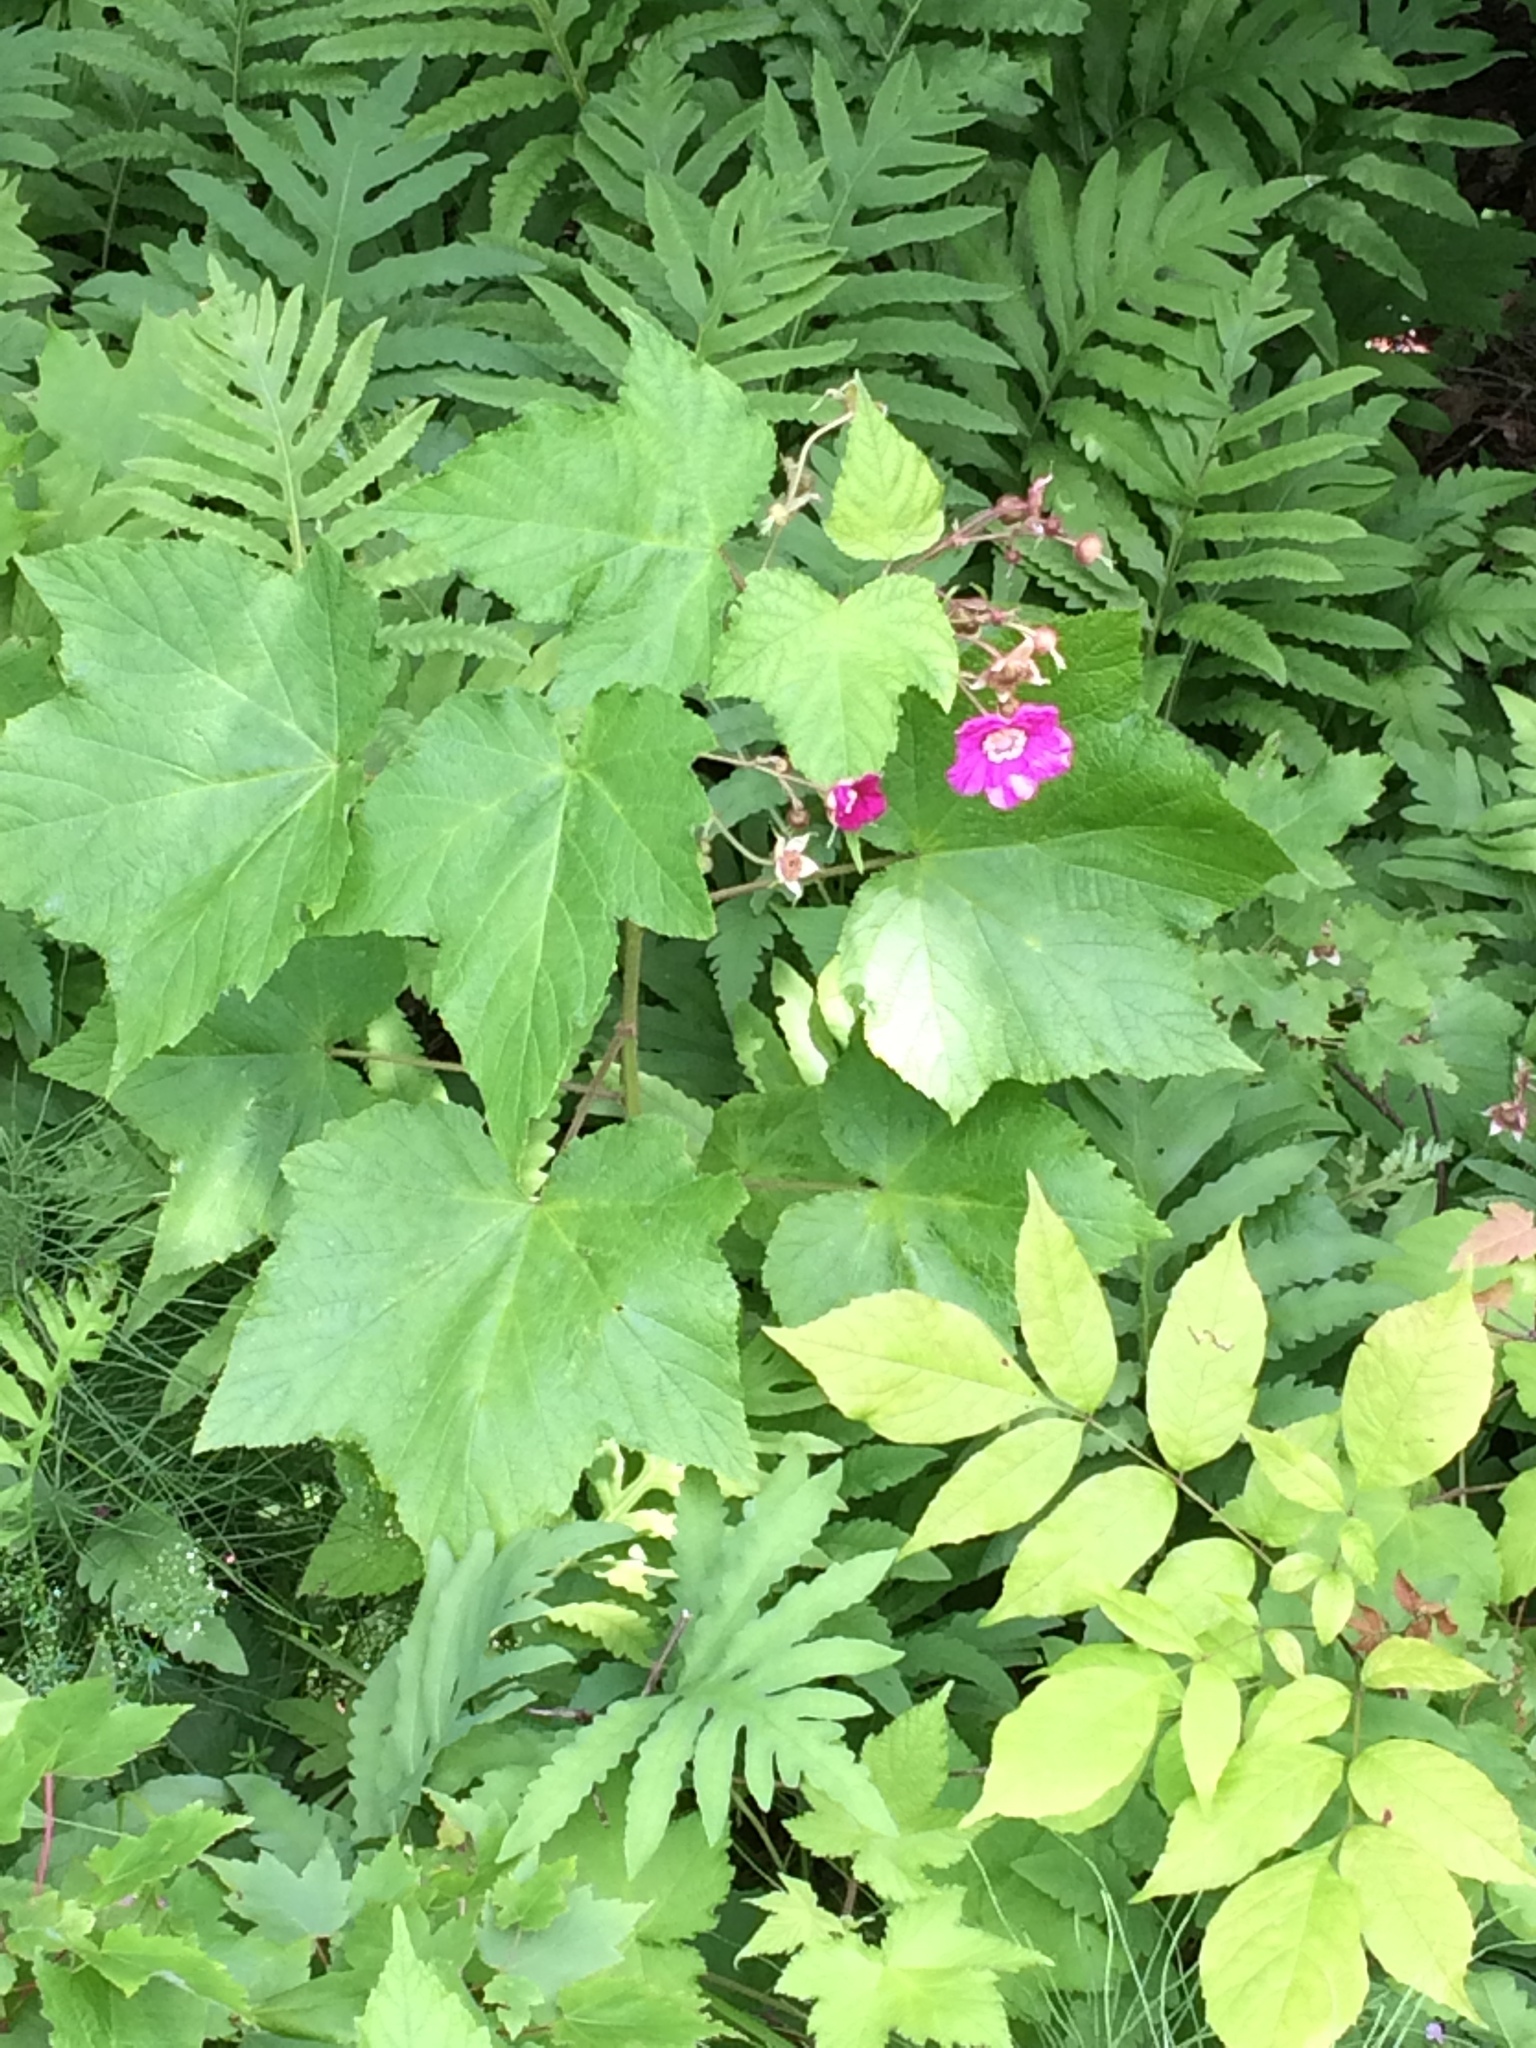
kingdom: Plantae
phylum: Tracheophyta
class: Magnoliopsida
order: Rosales
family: Rosaceae
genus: Rubus
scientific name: Rubus odoratus
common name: Purple-flowered raspberry
